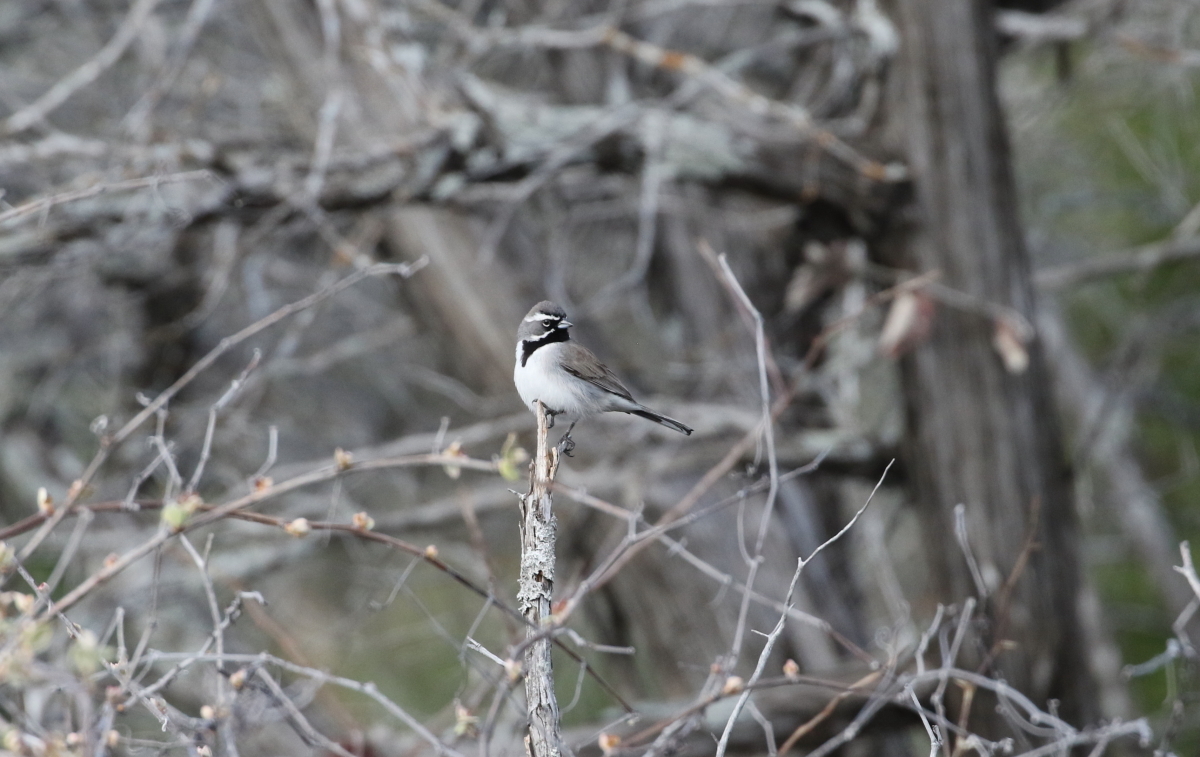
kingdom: Animalia
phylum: Chordata
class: Aves
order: Passeriformes
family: Passerellidae
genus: Amphispiza
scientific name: Amphispiza bilineata
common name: Black-throated sparrow
